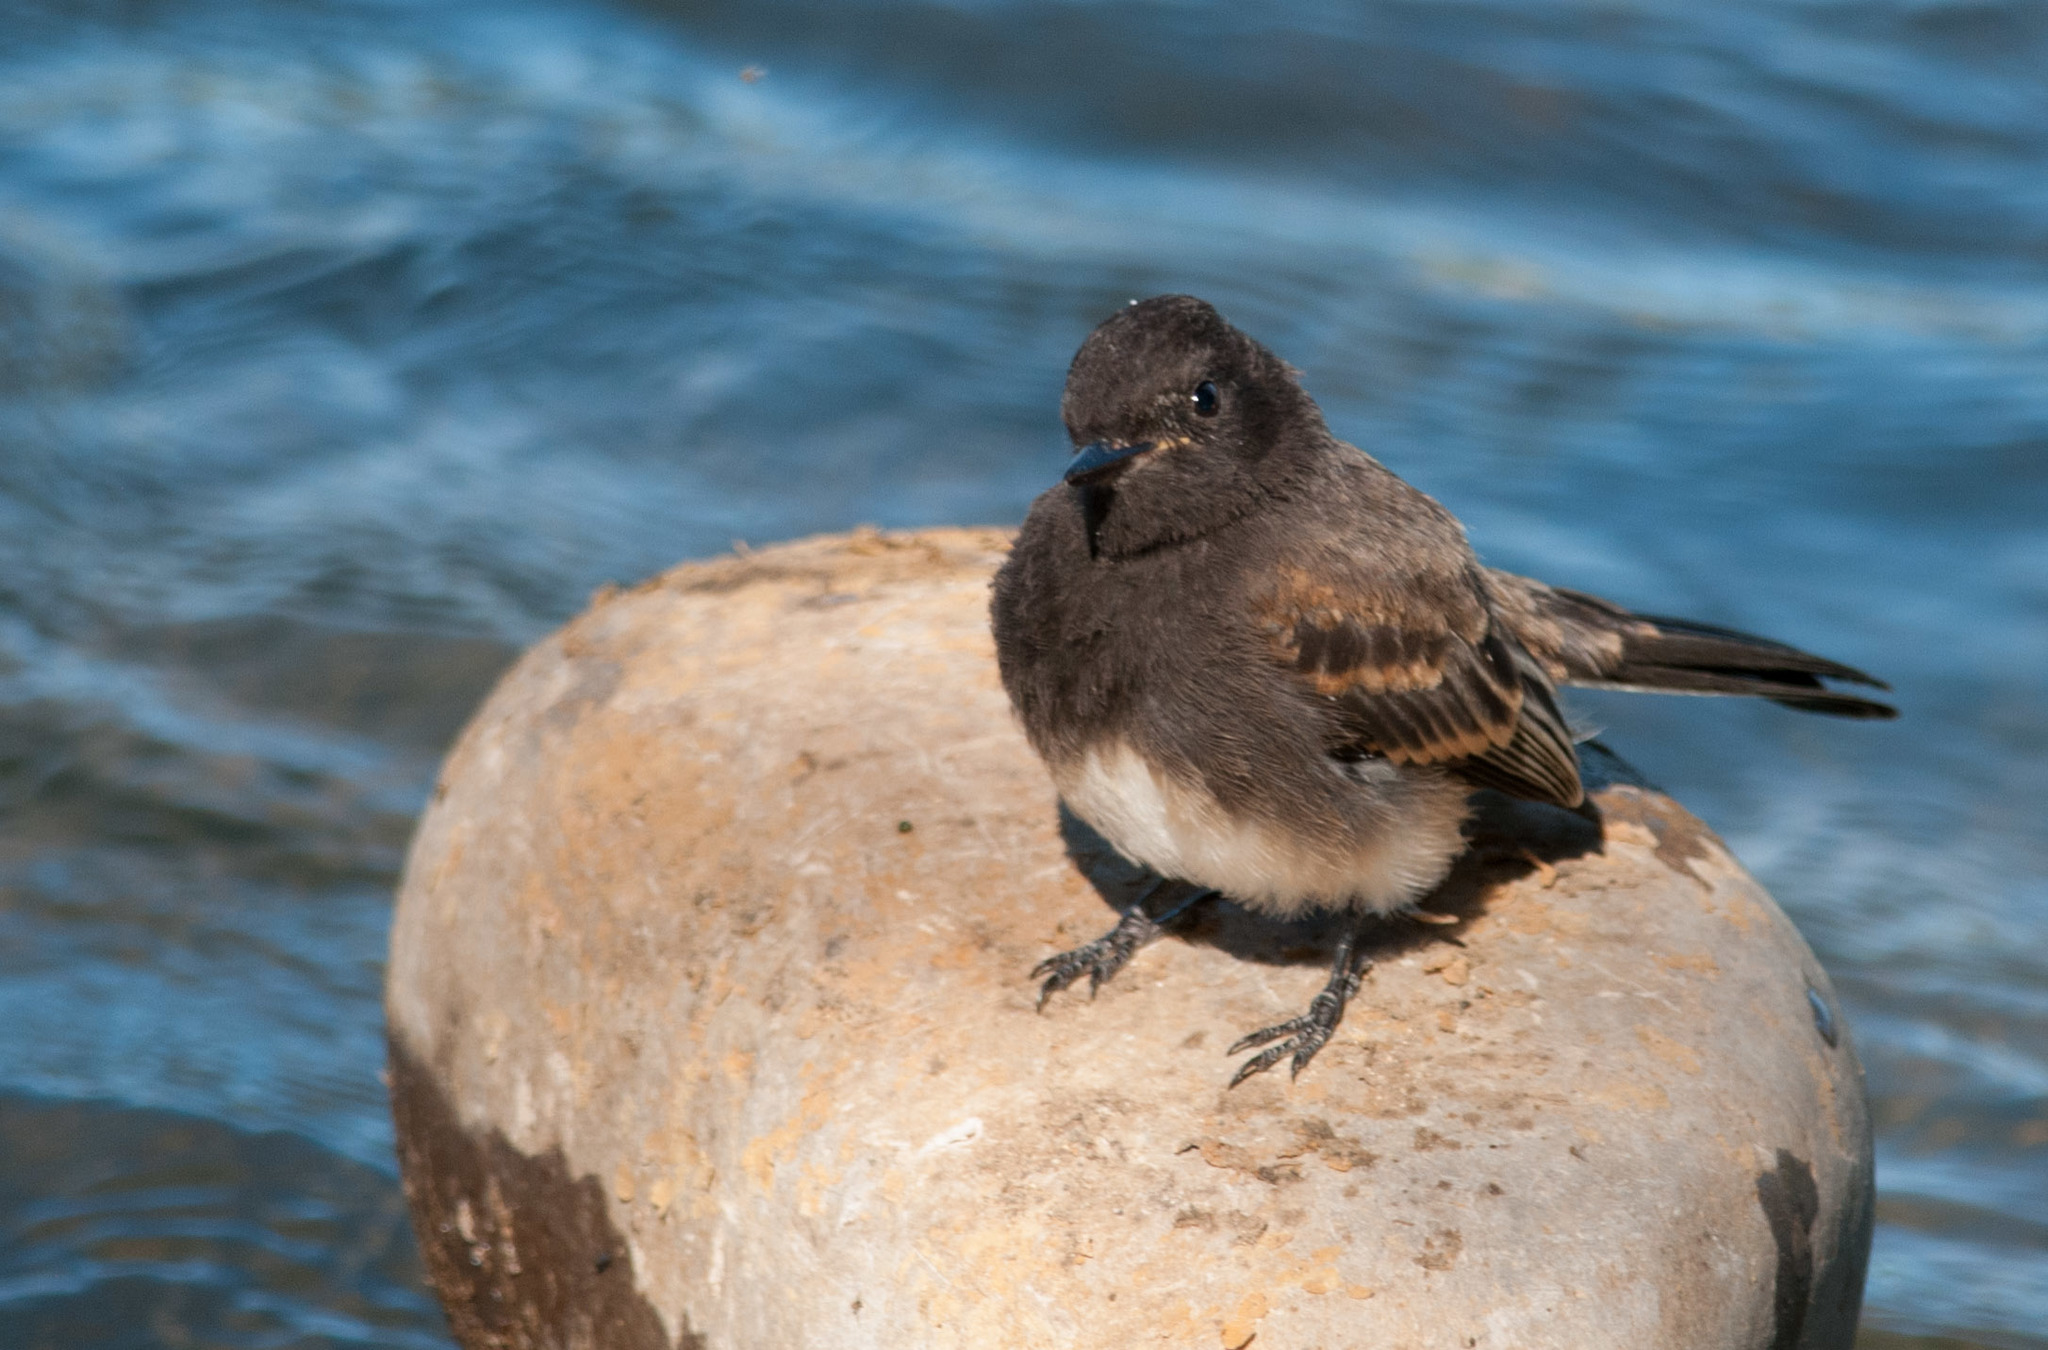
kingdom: Animalia
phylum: Chordata
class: Aves
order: Passeriformes
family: Tyrannidae
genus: Sayornis
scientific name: Sayornis nigricans
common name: Black phoebe
